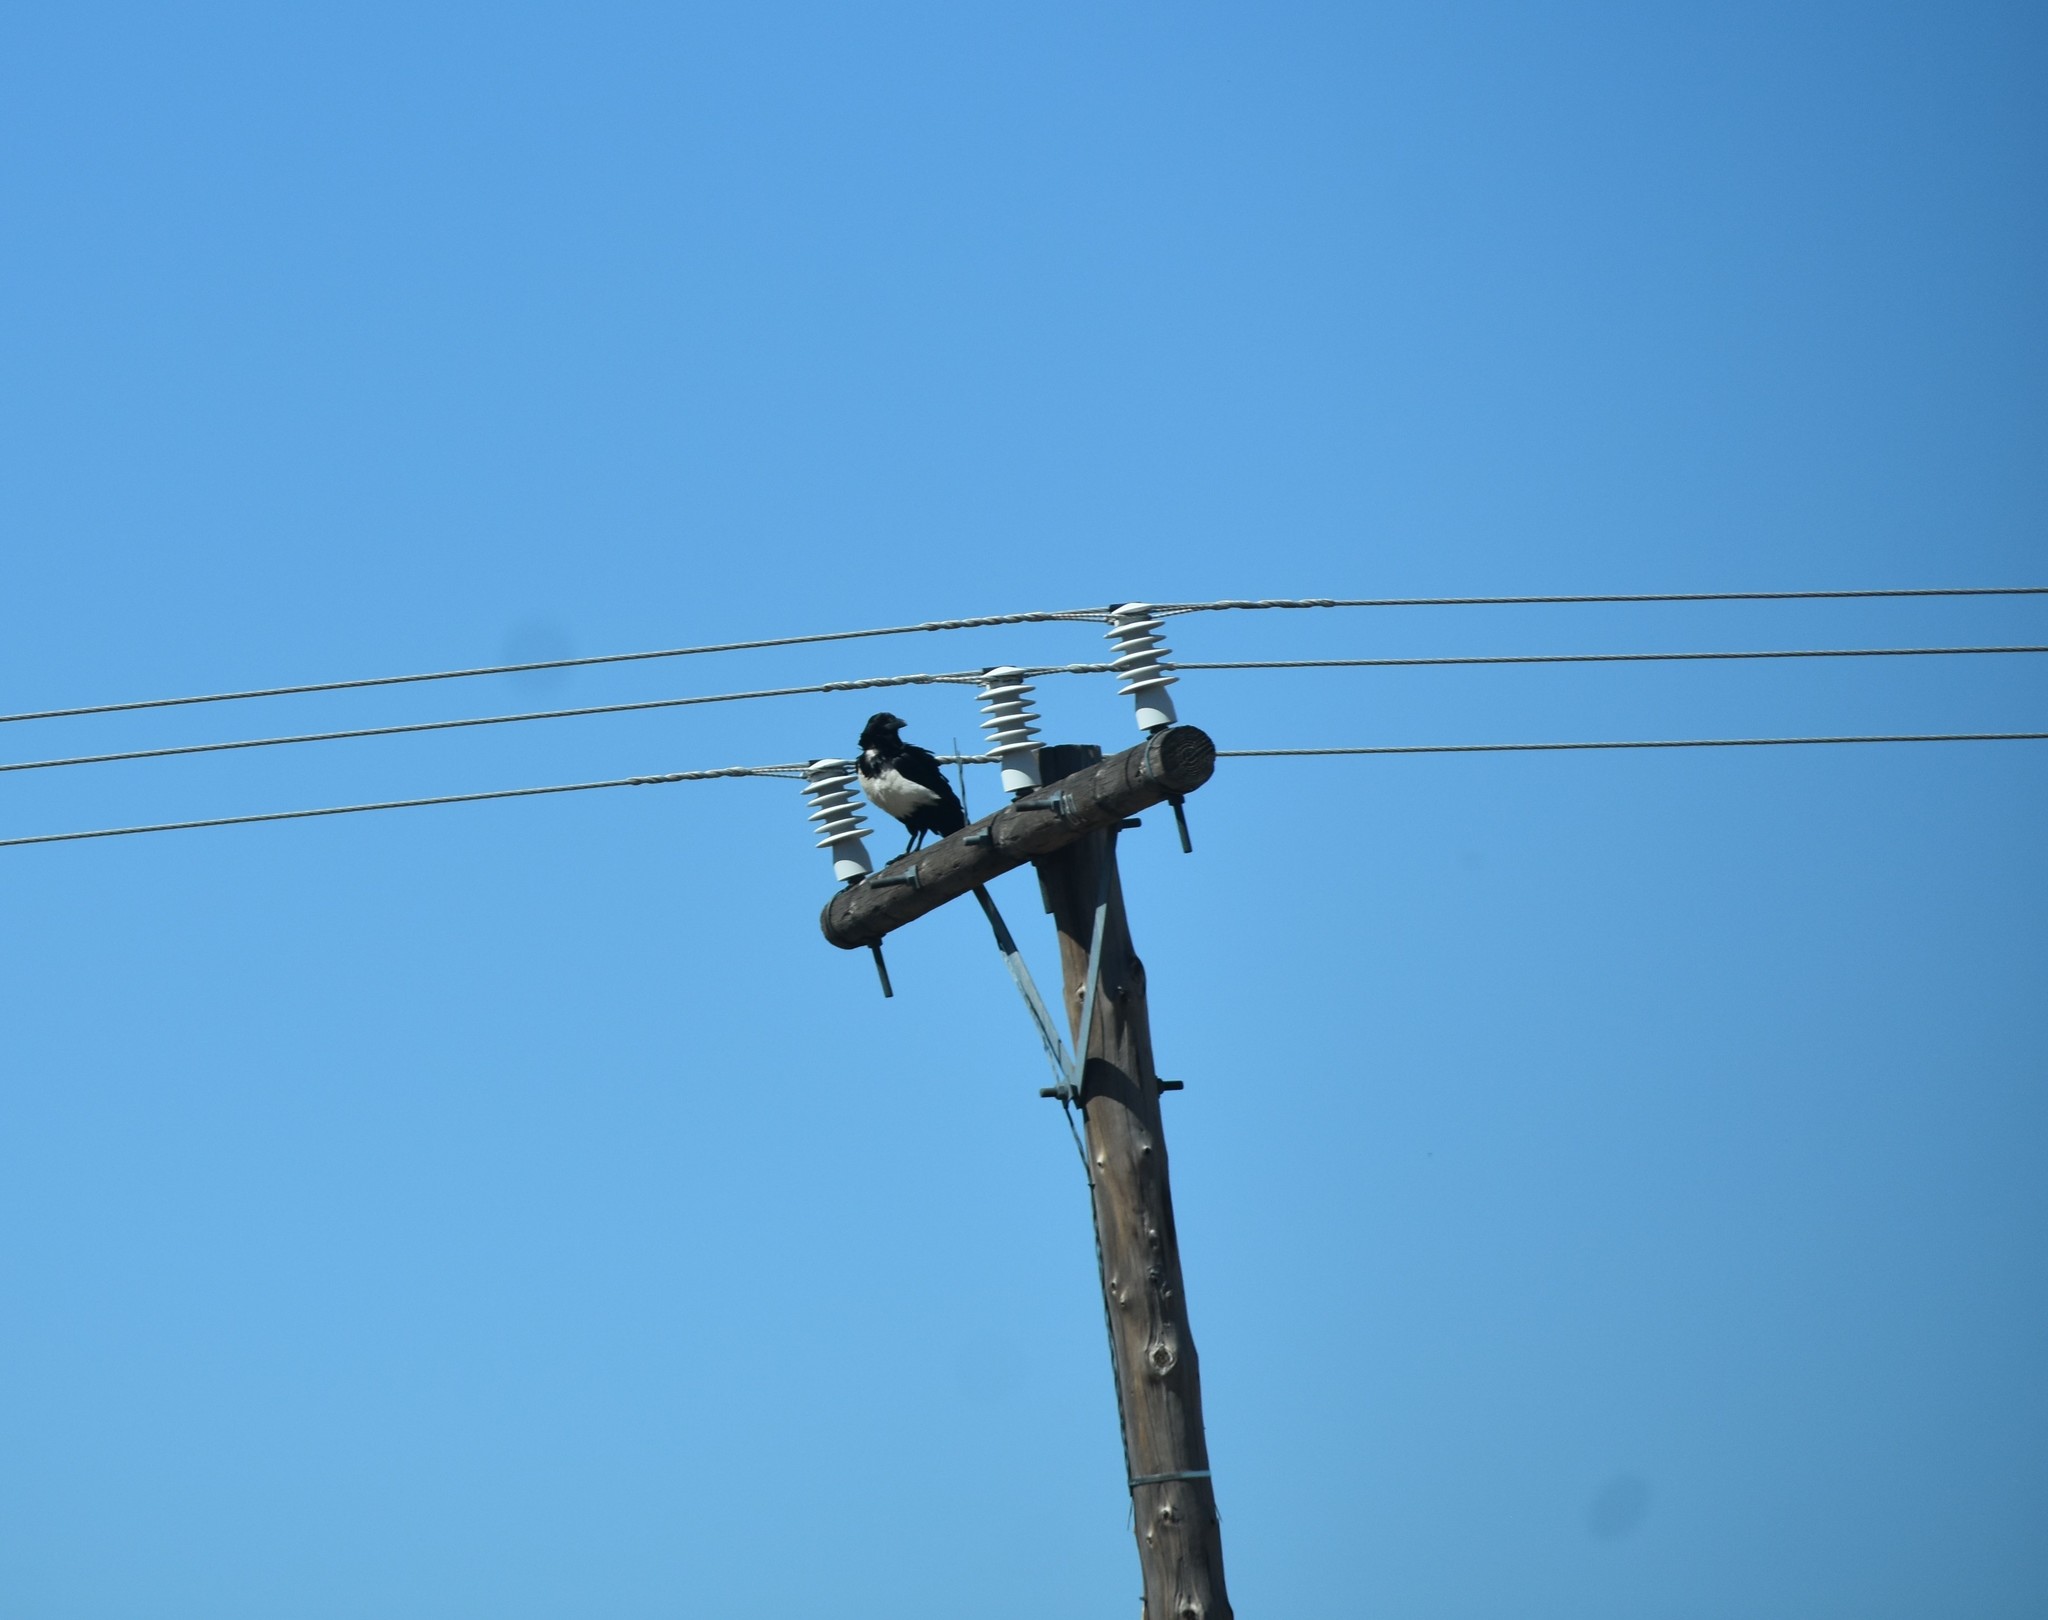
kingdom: Animalia
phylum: Chordata
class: Aves
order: Passeriformes
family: Corvidae
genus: Corvus
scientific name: Corvus albus
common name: Pied crow
